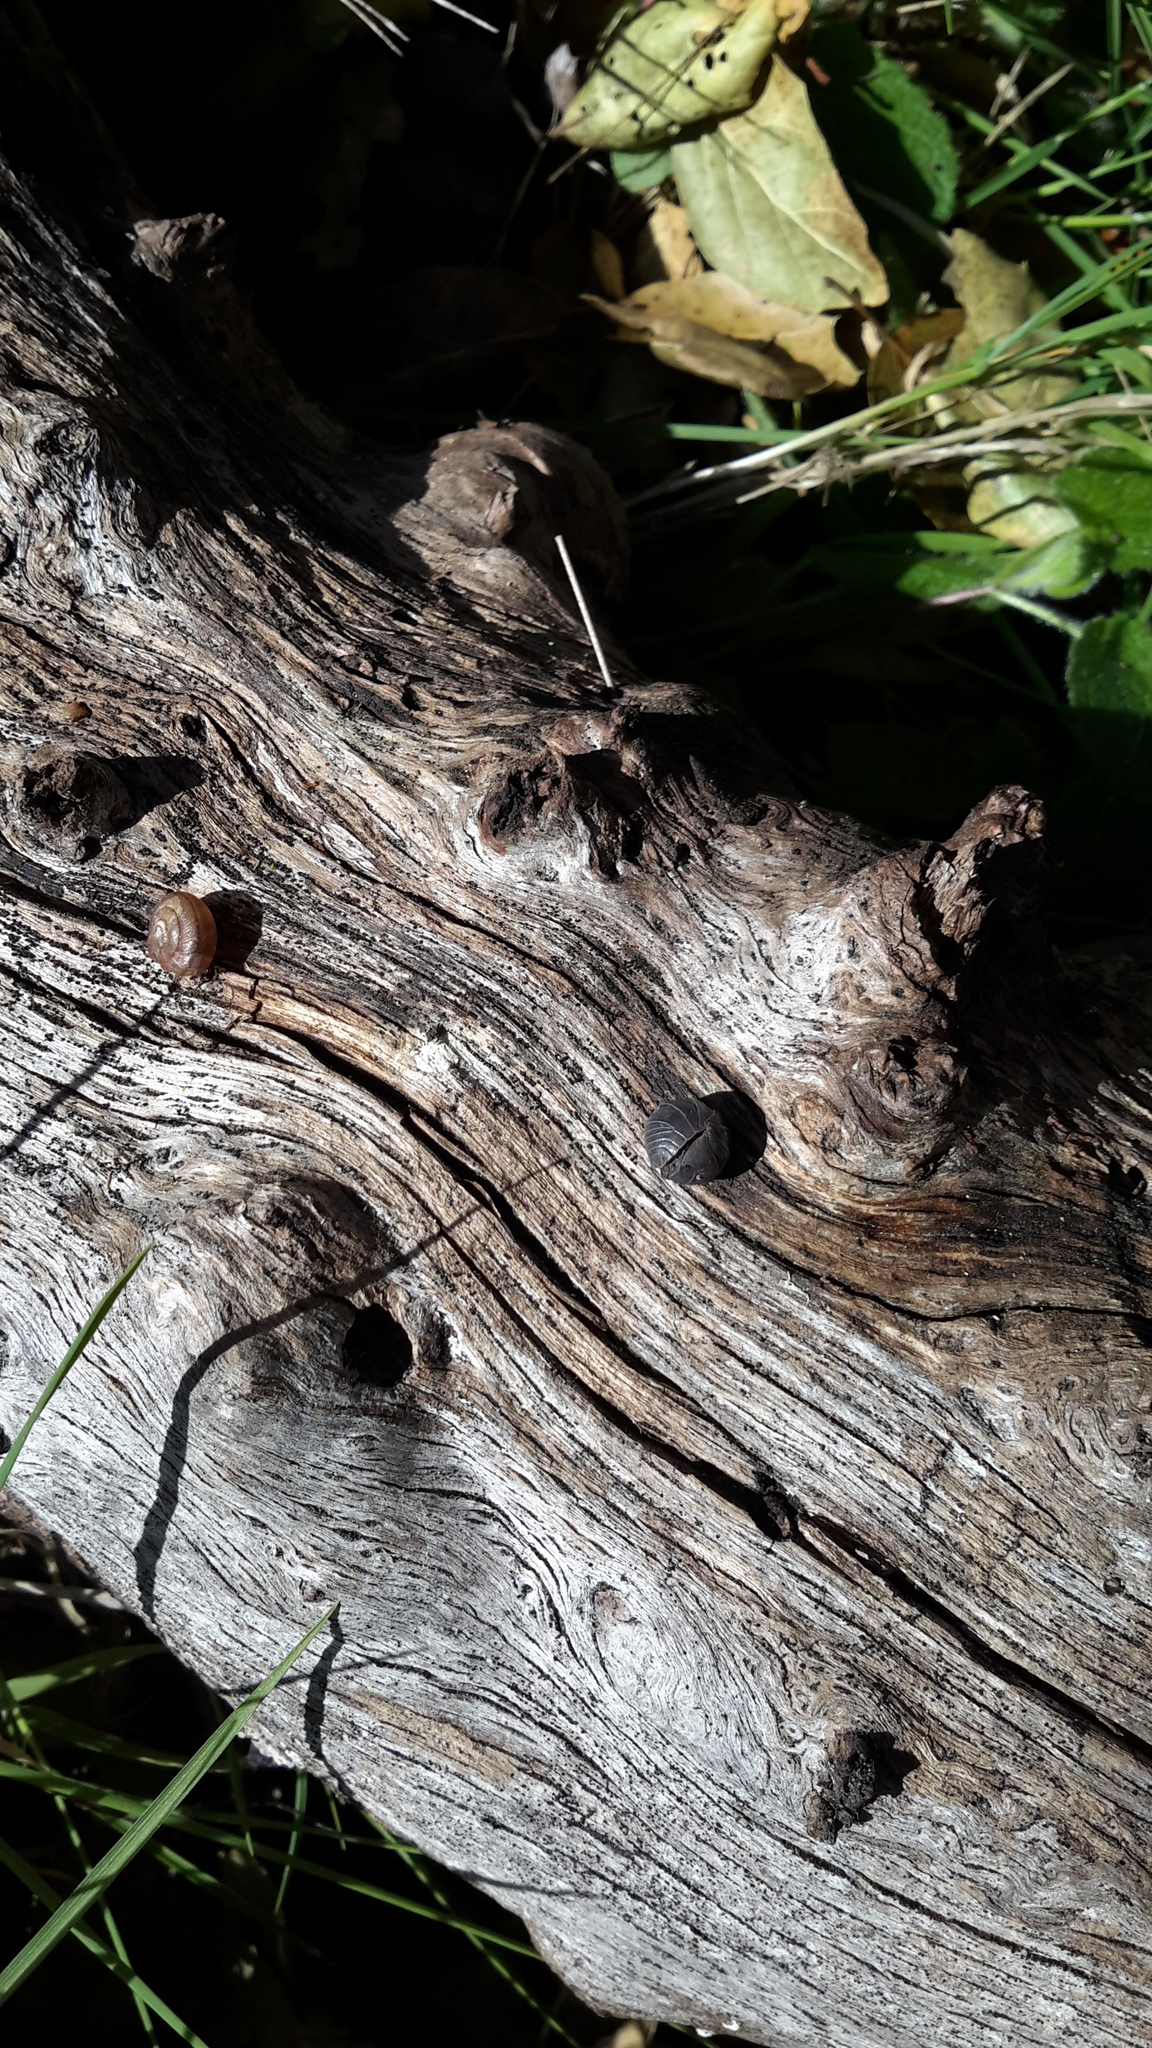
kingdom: Animalia
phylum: Arthropoda
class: Malacostraca
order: Isopoda
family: Armadillidiidae
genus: Armadillidium
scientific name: Armadillidium vulgare
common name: Common pill woodlouse
